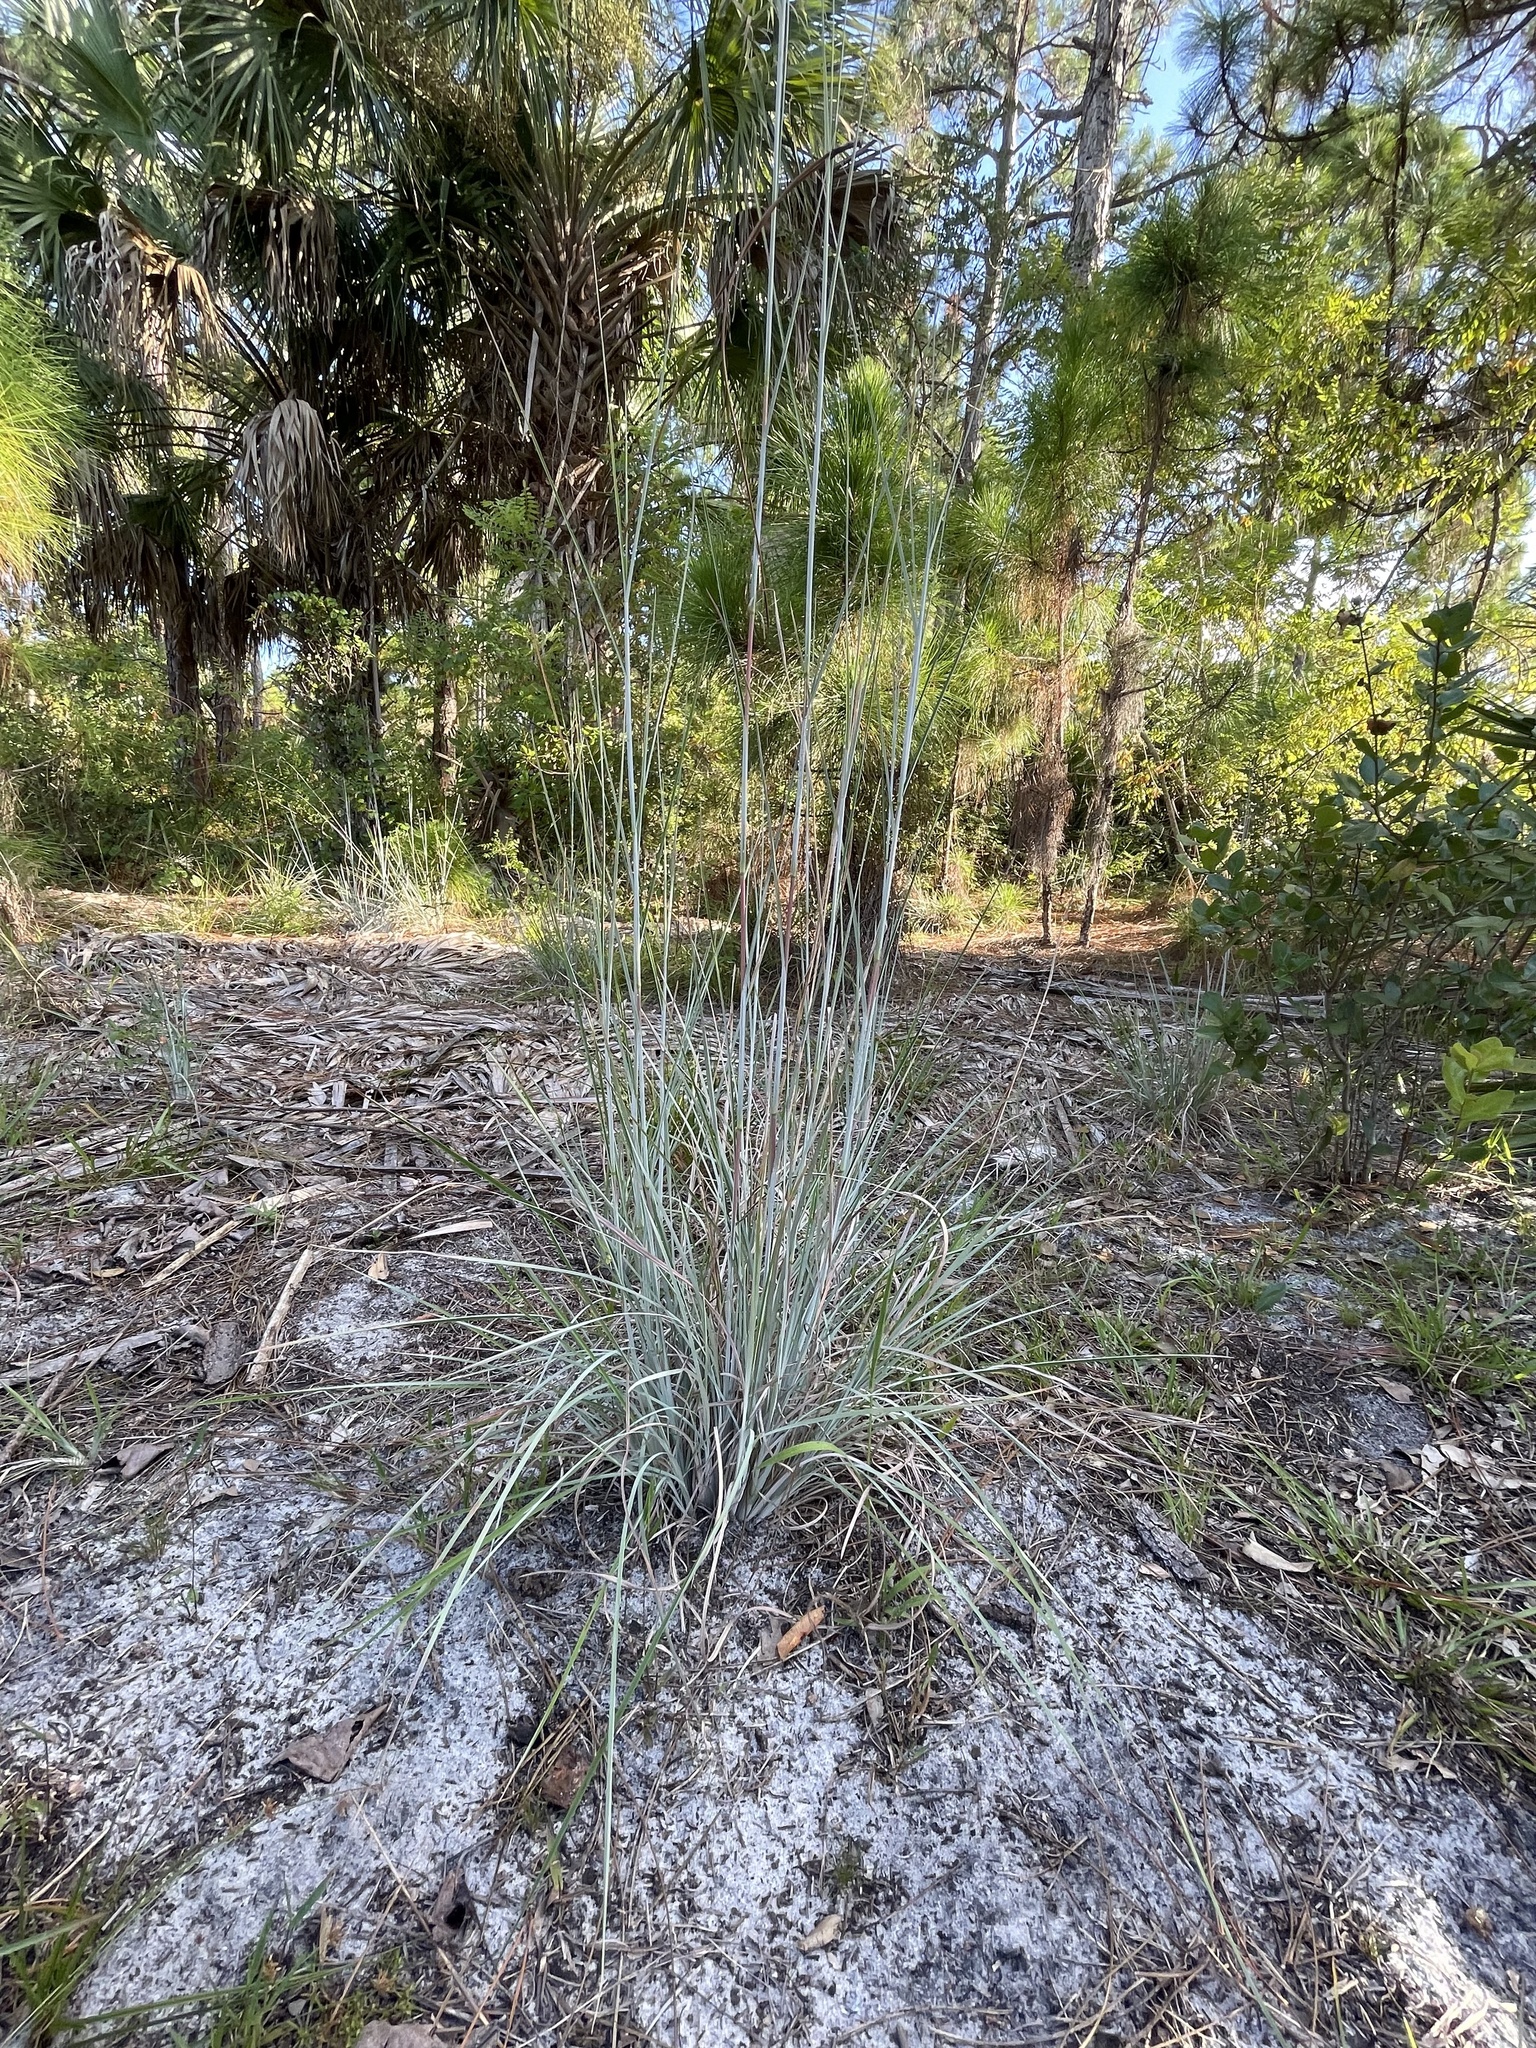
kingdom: Plantae
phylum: Tracheophyta
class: Liliopsida
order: Poales
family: Poaceae
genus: Andropogon
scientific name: Andropogon capillipes
